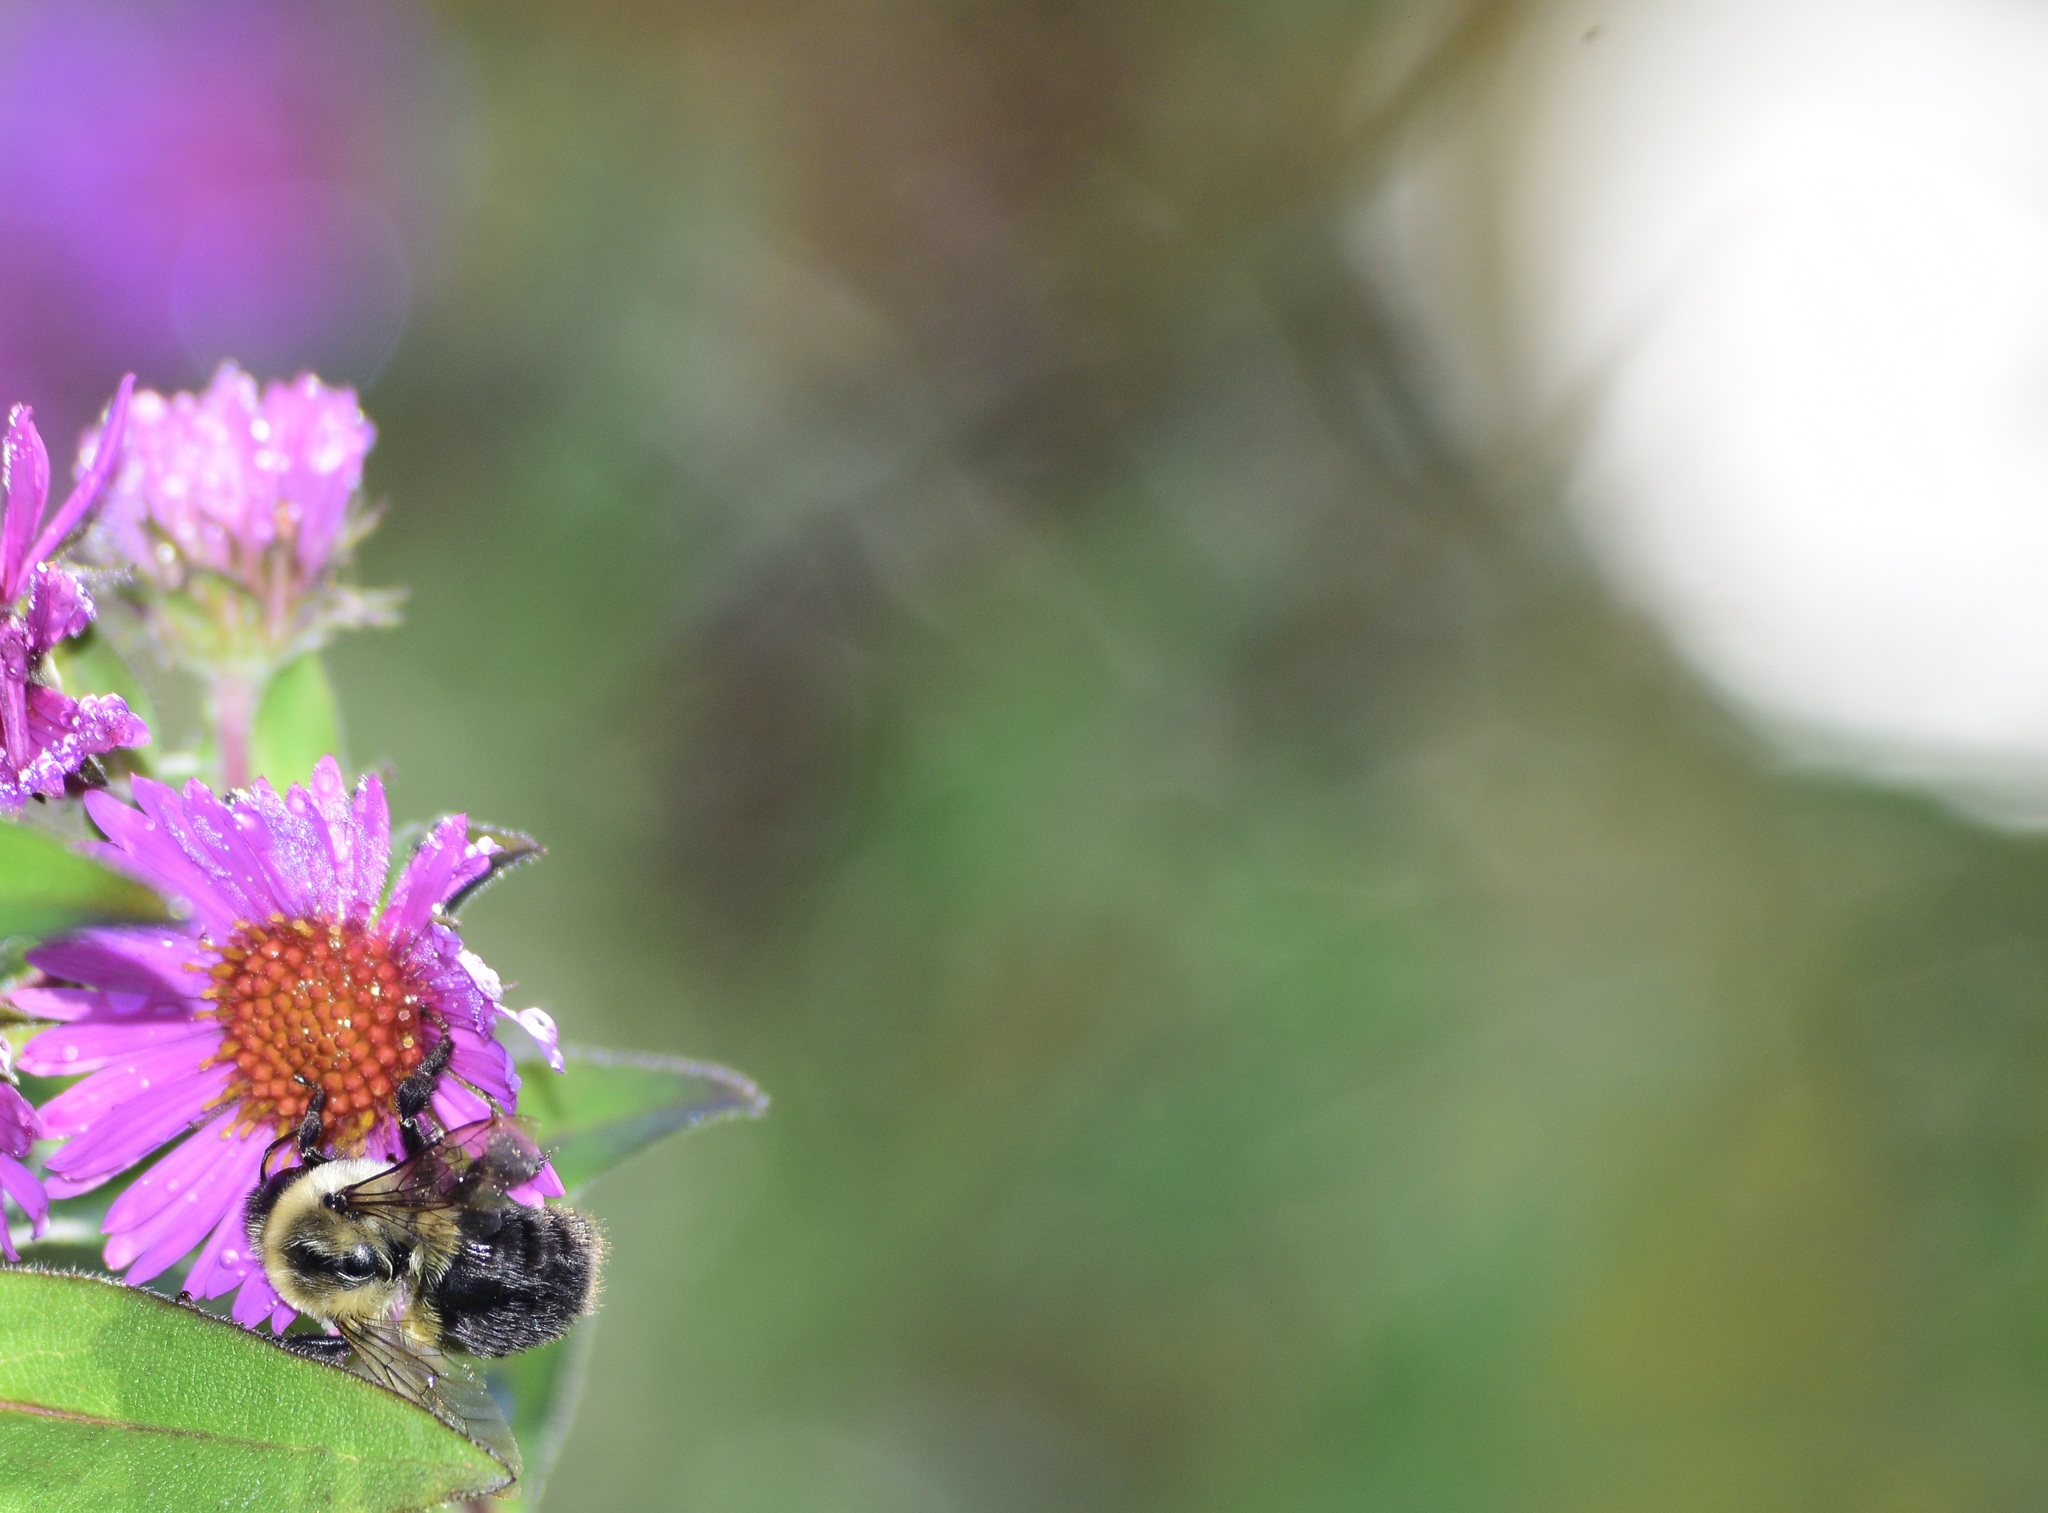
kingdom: Animalia
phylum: Arthropoda
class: Insecta
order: Hymenoptera
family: Apidae
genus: Bombus
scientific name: Bombus impatiens
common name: Common eastern bumble bee
